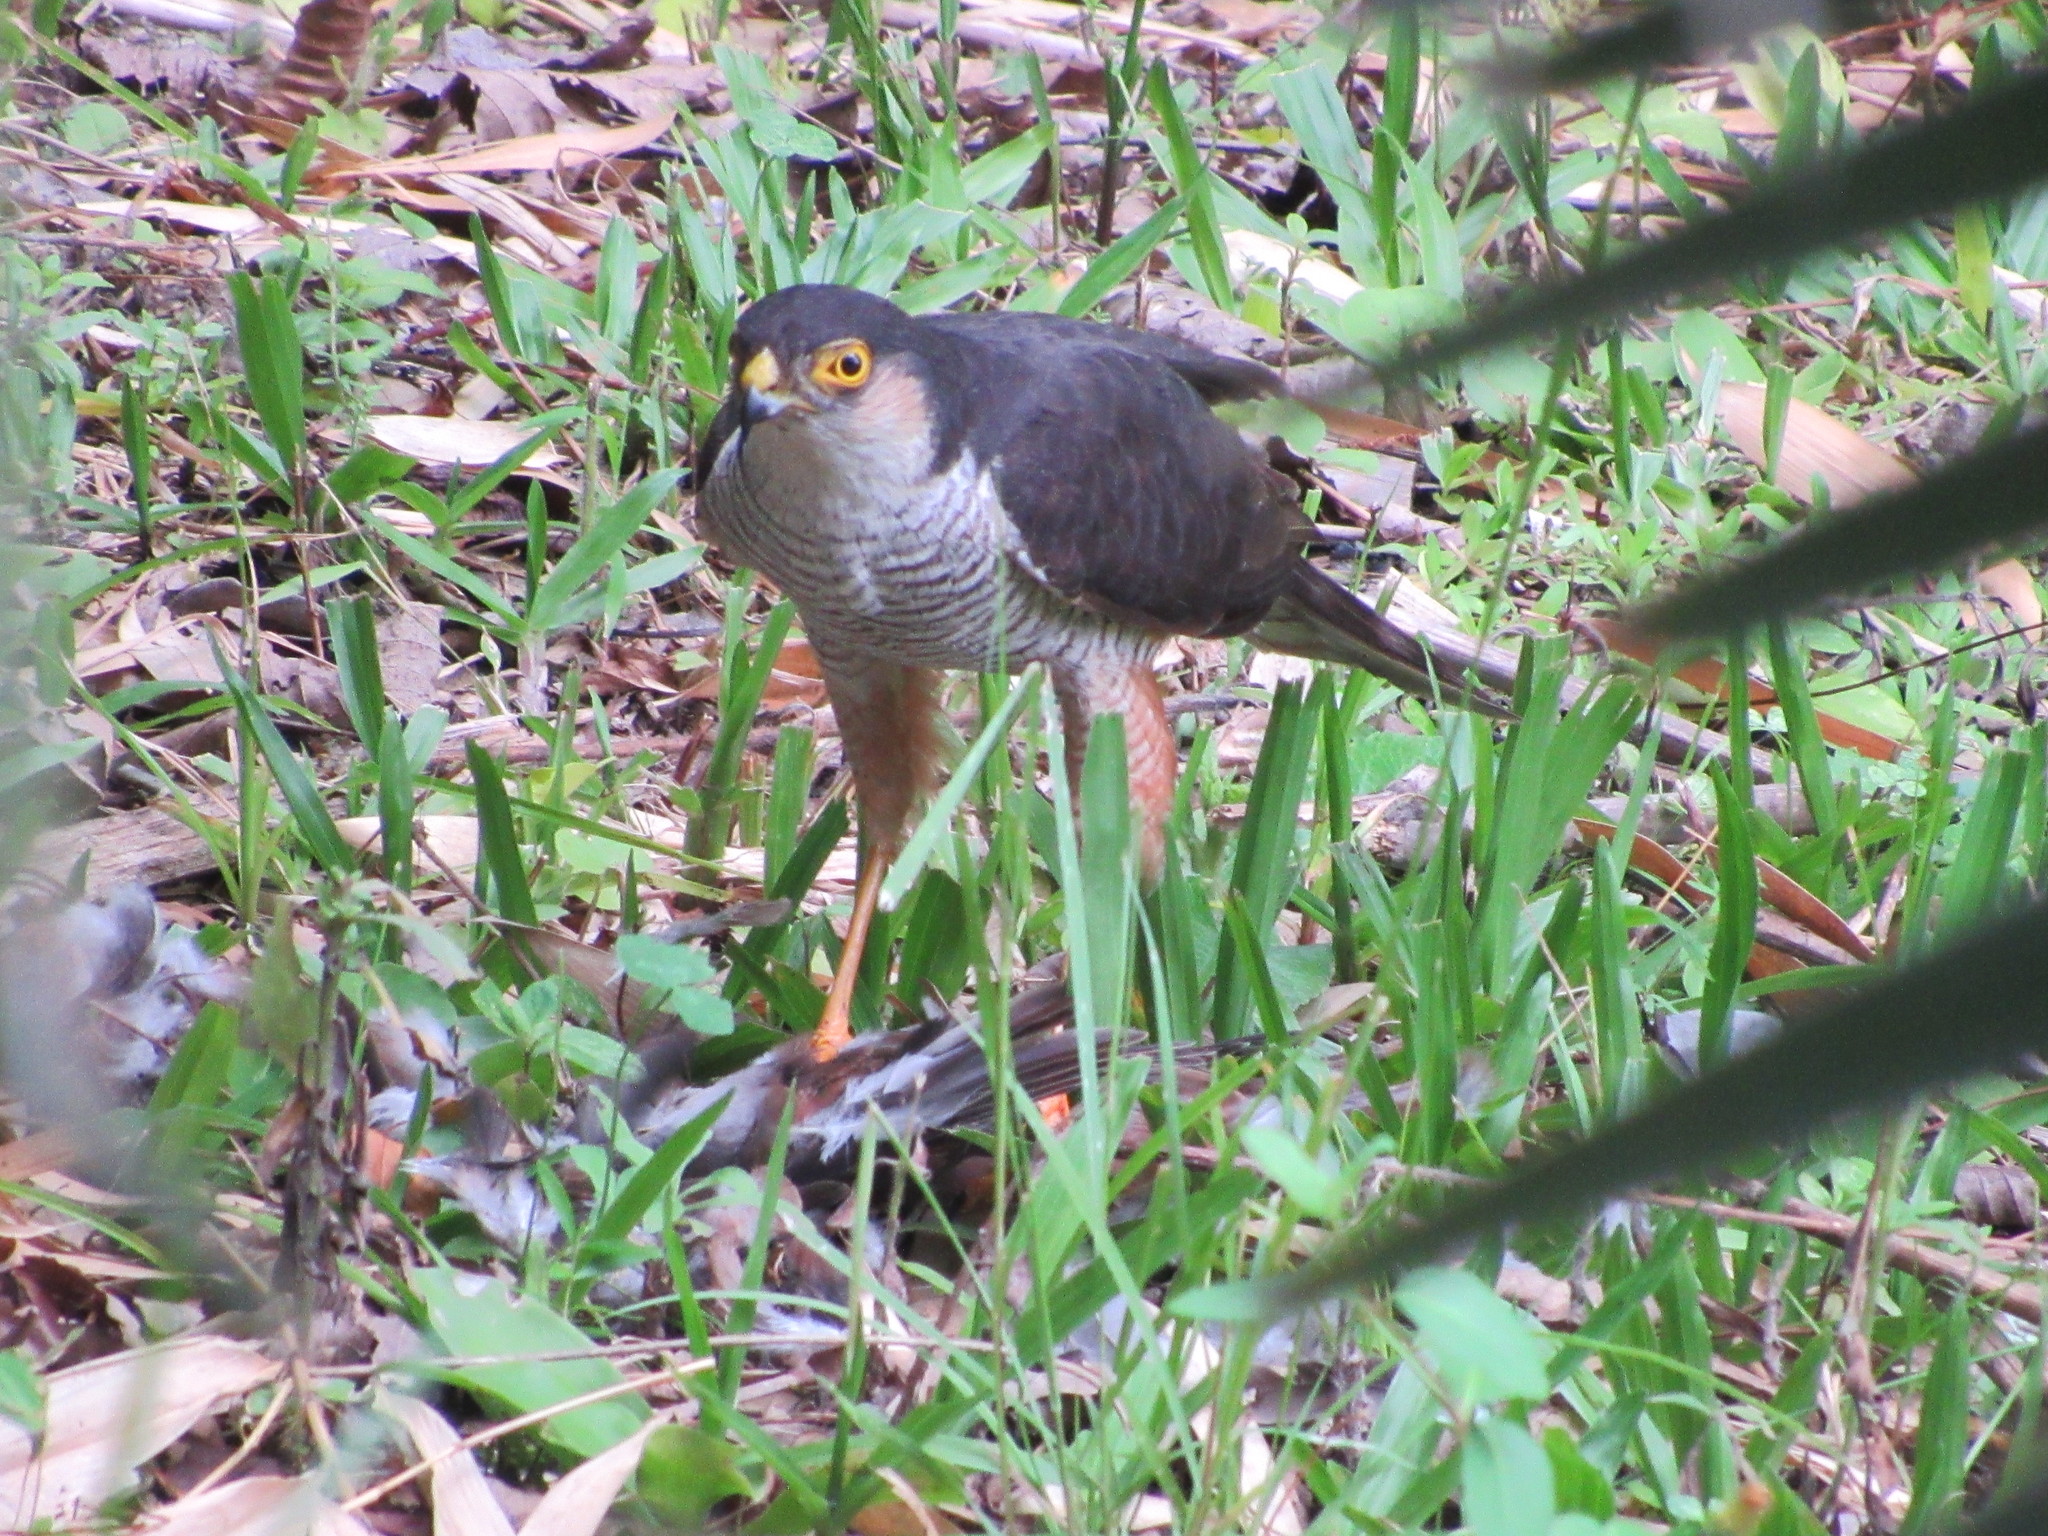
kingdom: Animalia
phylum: Chordata
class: Aves
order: Accipitriformes
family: Accipitridae
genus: Accipiter
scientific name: Accipiter striatus
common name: Sharp-shinned hawk
